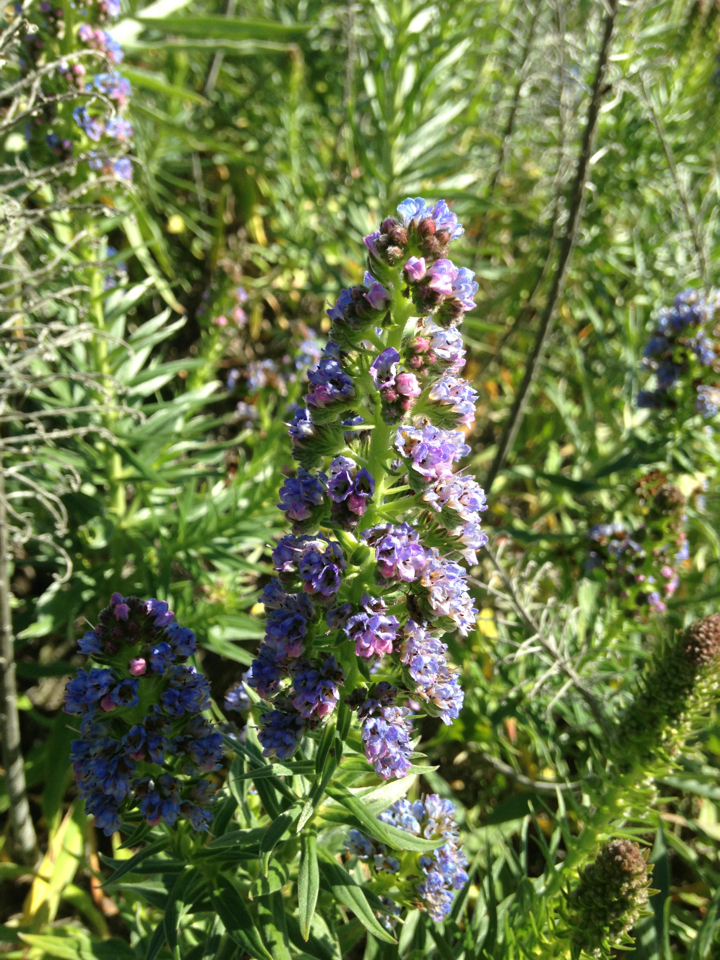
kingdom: Plantae
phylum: Tracheophyta
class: Magnoliopsida
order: Boraginales
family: Boraginaceae
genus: Echium
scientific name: Echium candicans
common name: Pride of madeira
